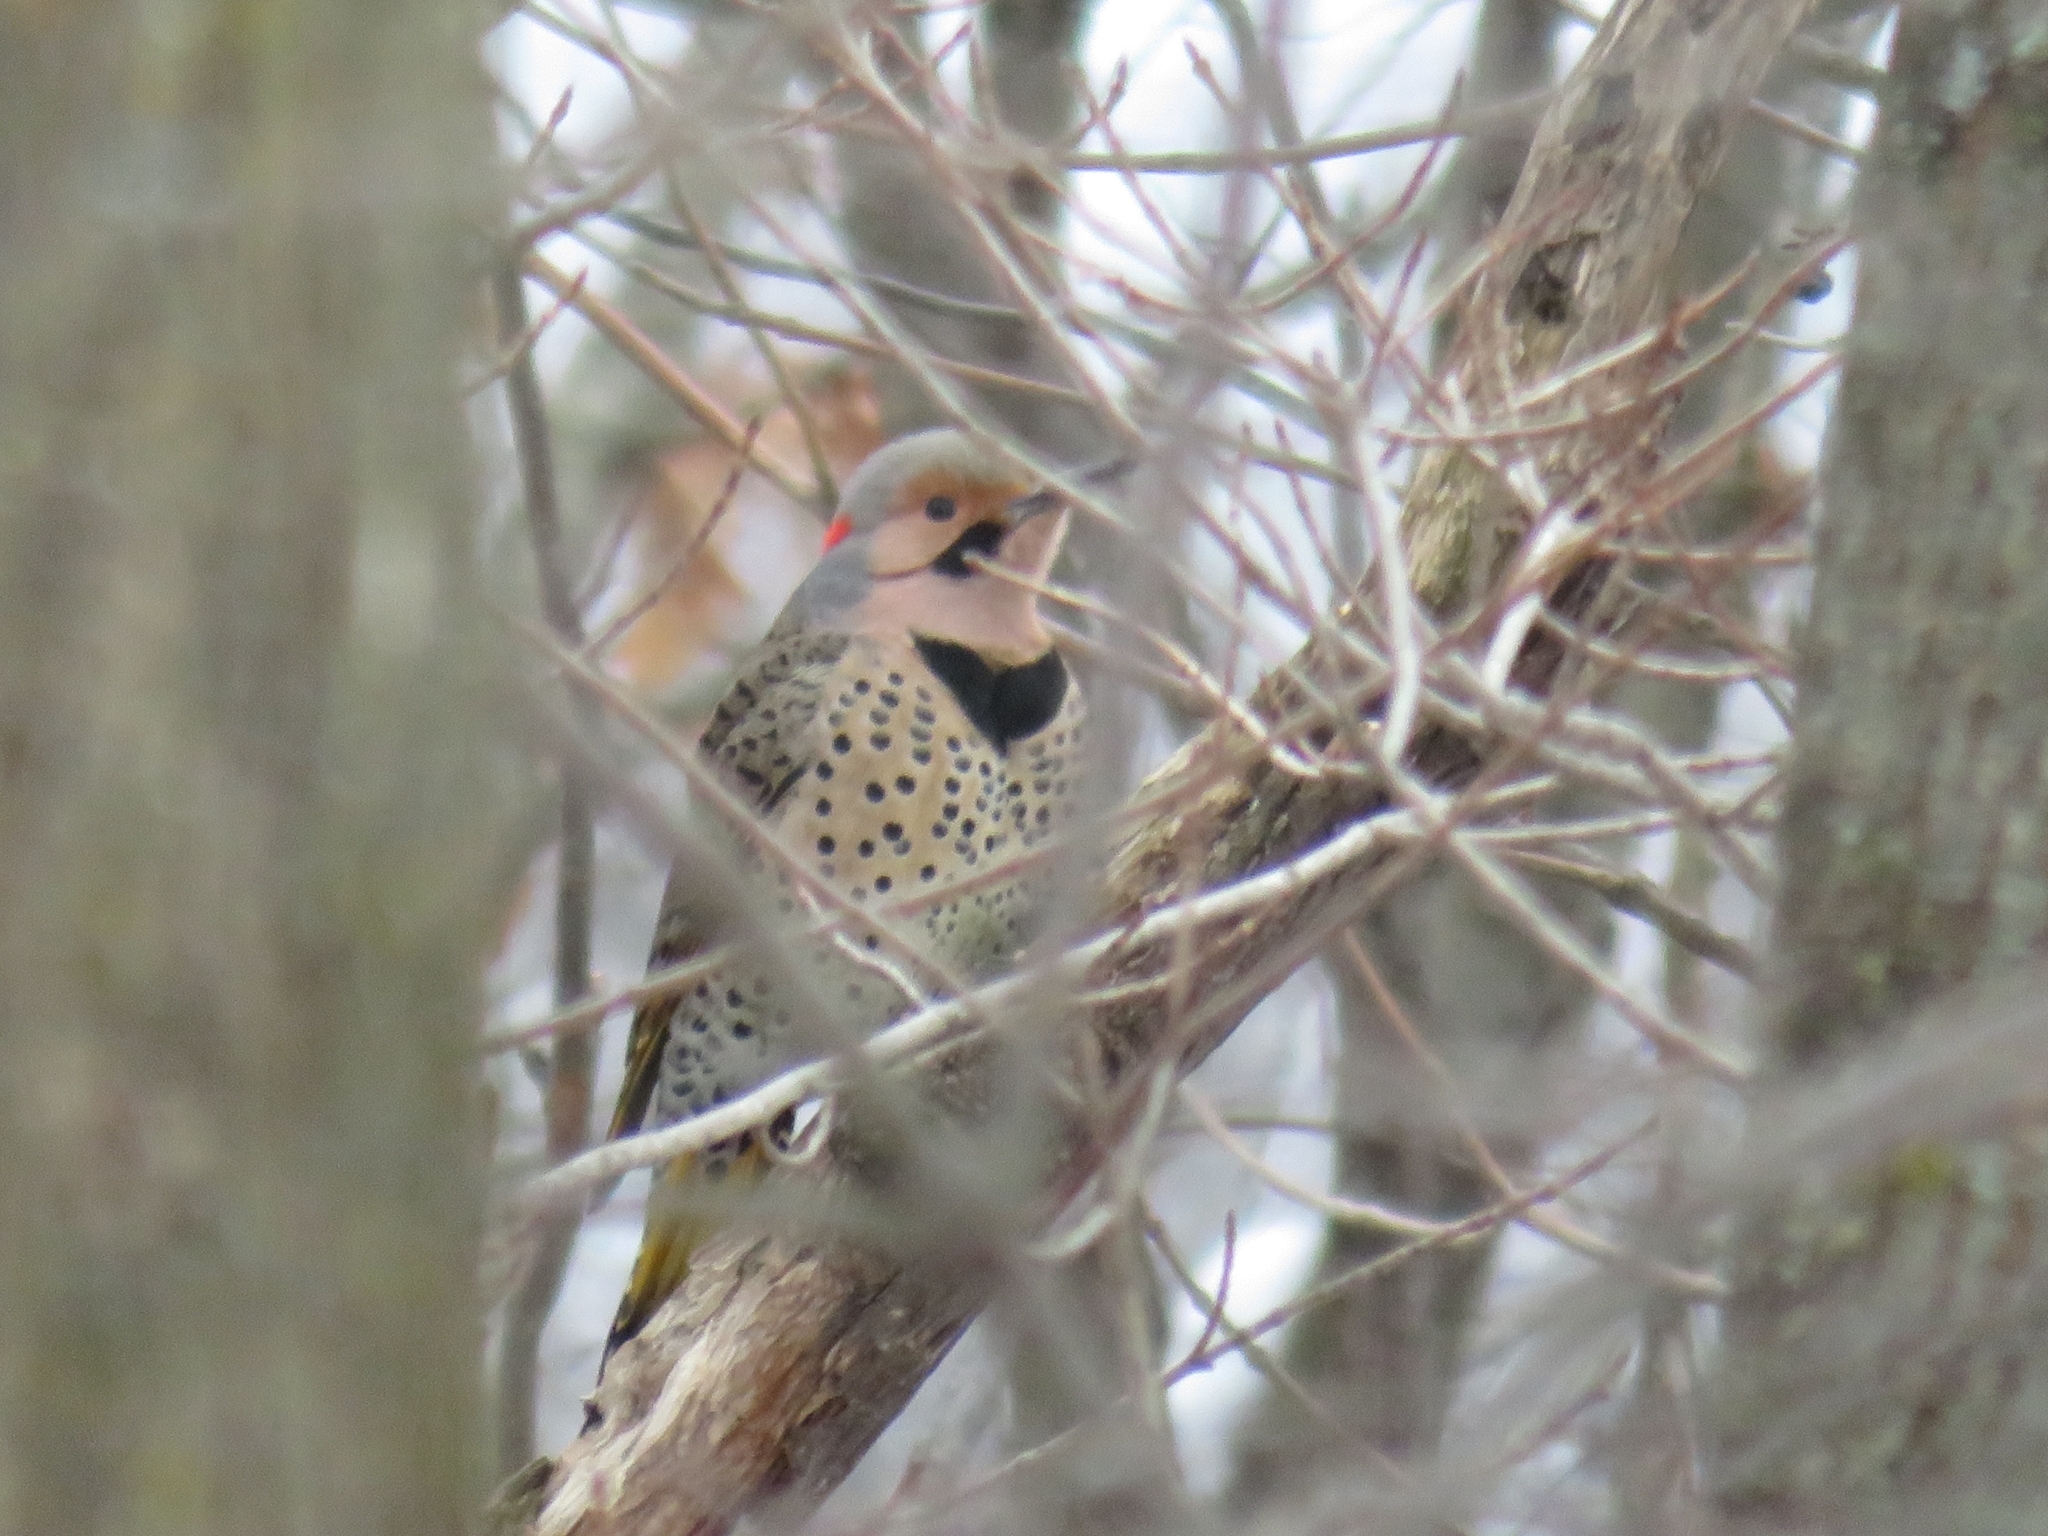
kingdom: Animalia
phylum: Chordata
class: Aves
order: Piciformes
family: Picidae
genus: Colaptes
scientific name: Colaptes auratus
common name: Northern flicker
